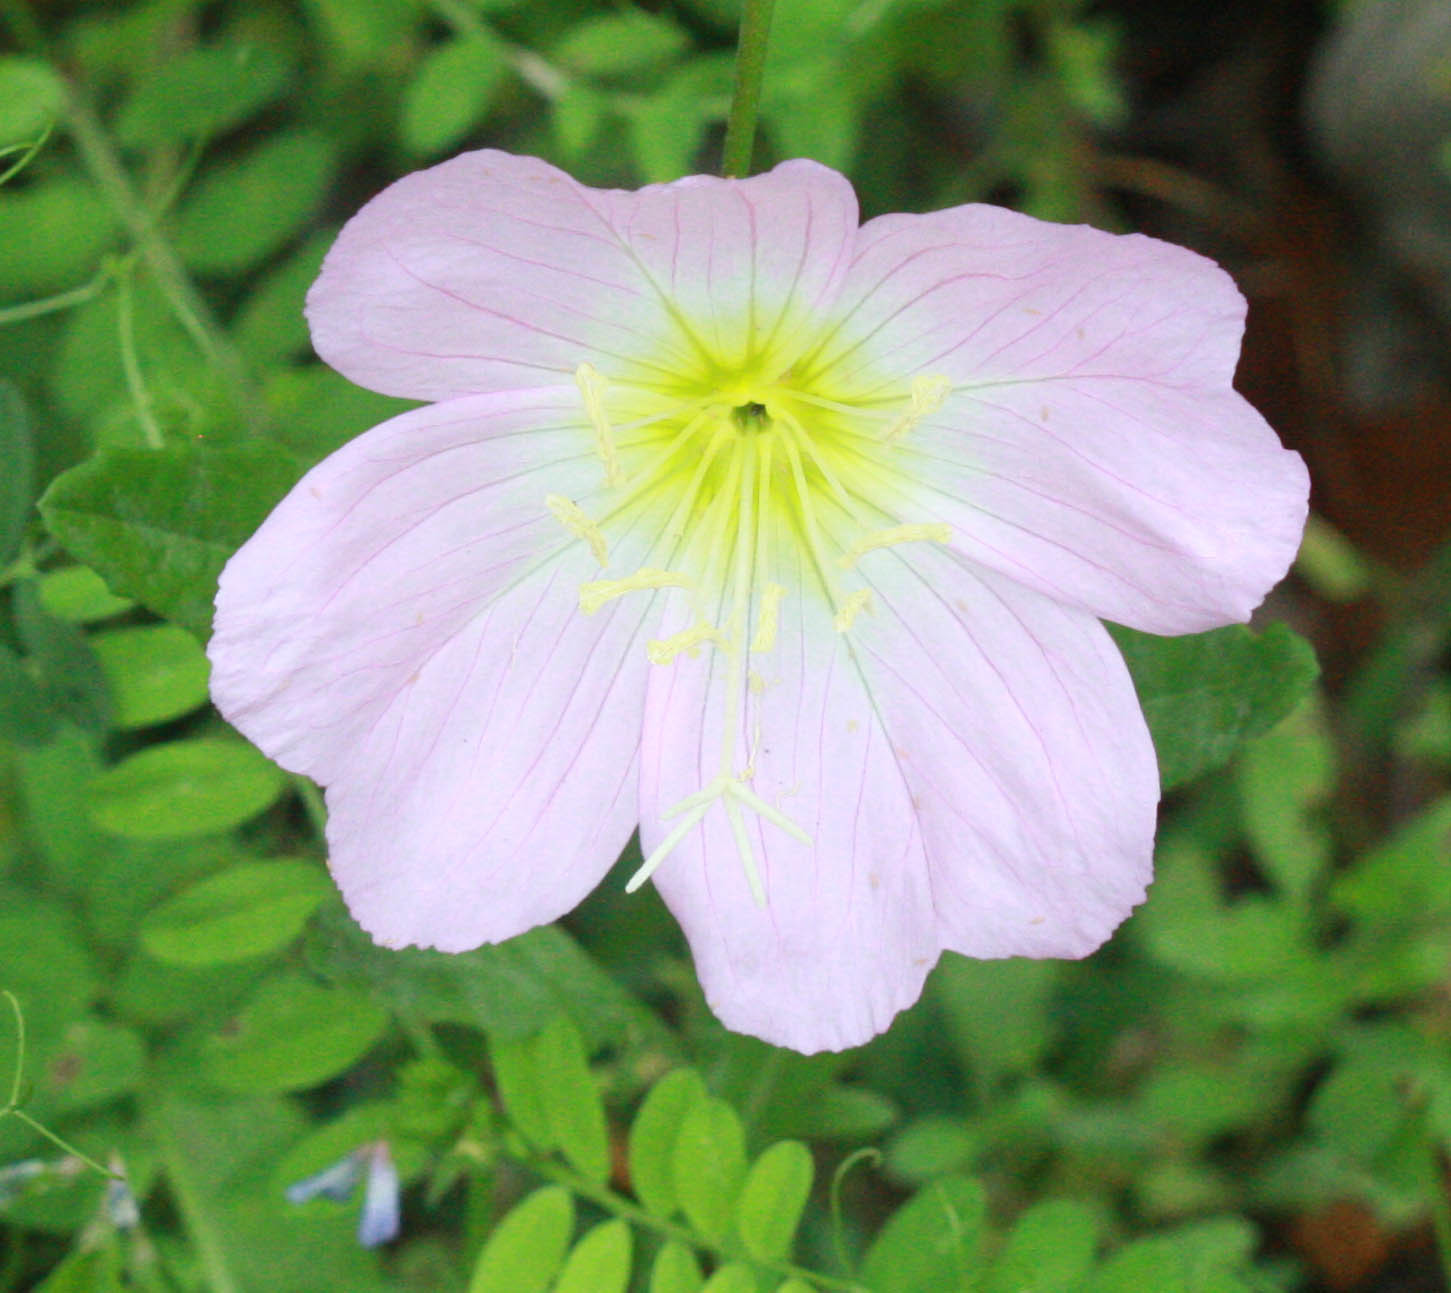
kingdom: Plantae
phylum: Tracheophyta
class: Magnoliopsida
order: Myrtales
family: Onagraceae
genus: Oenothera
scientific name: Oenothera speciosa
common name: White evening-primrose
